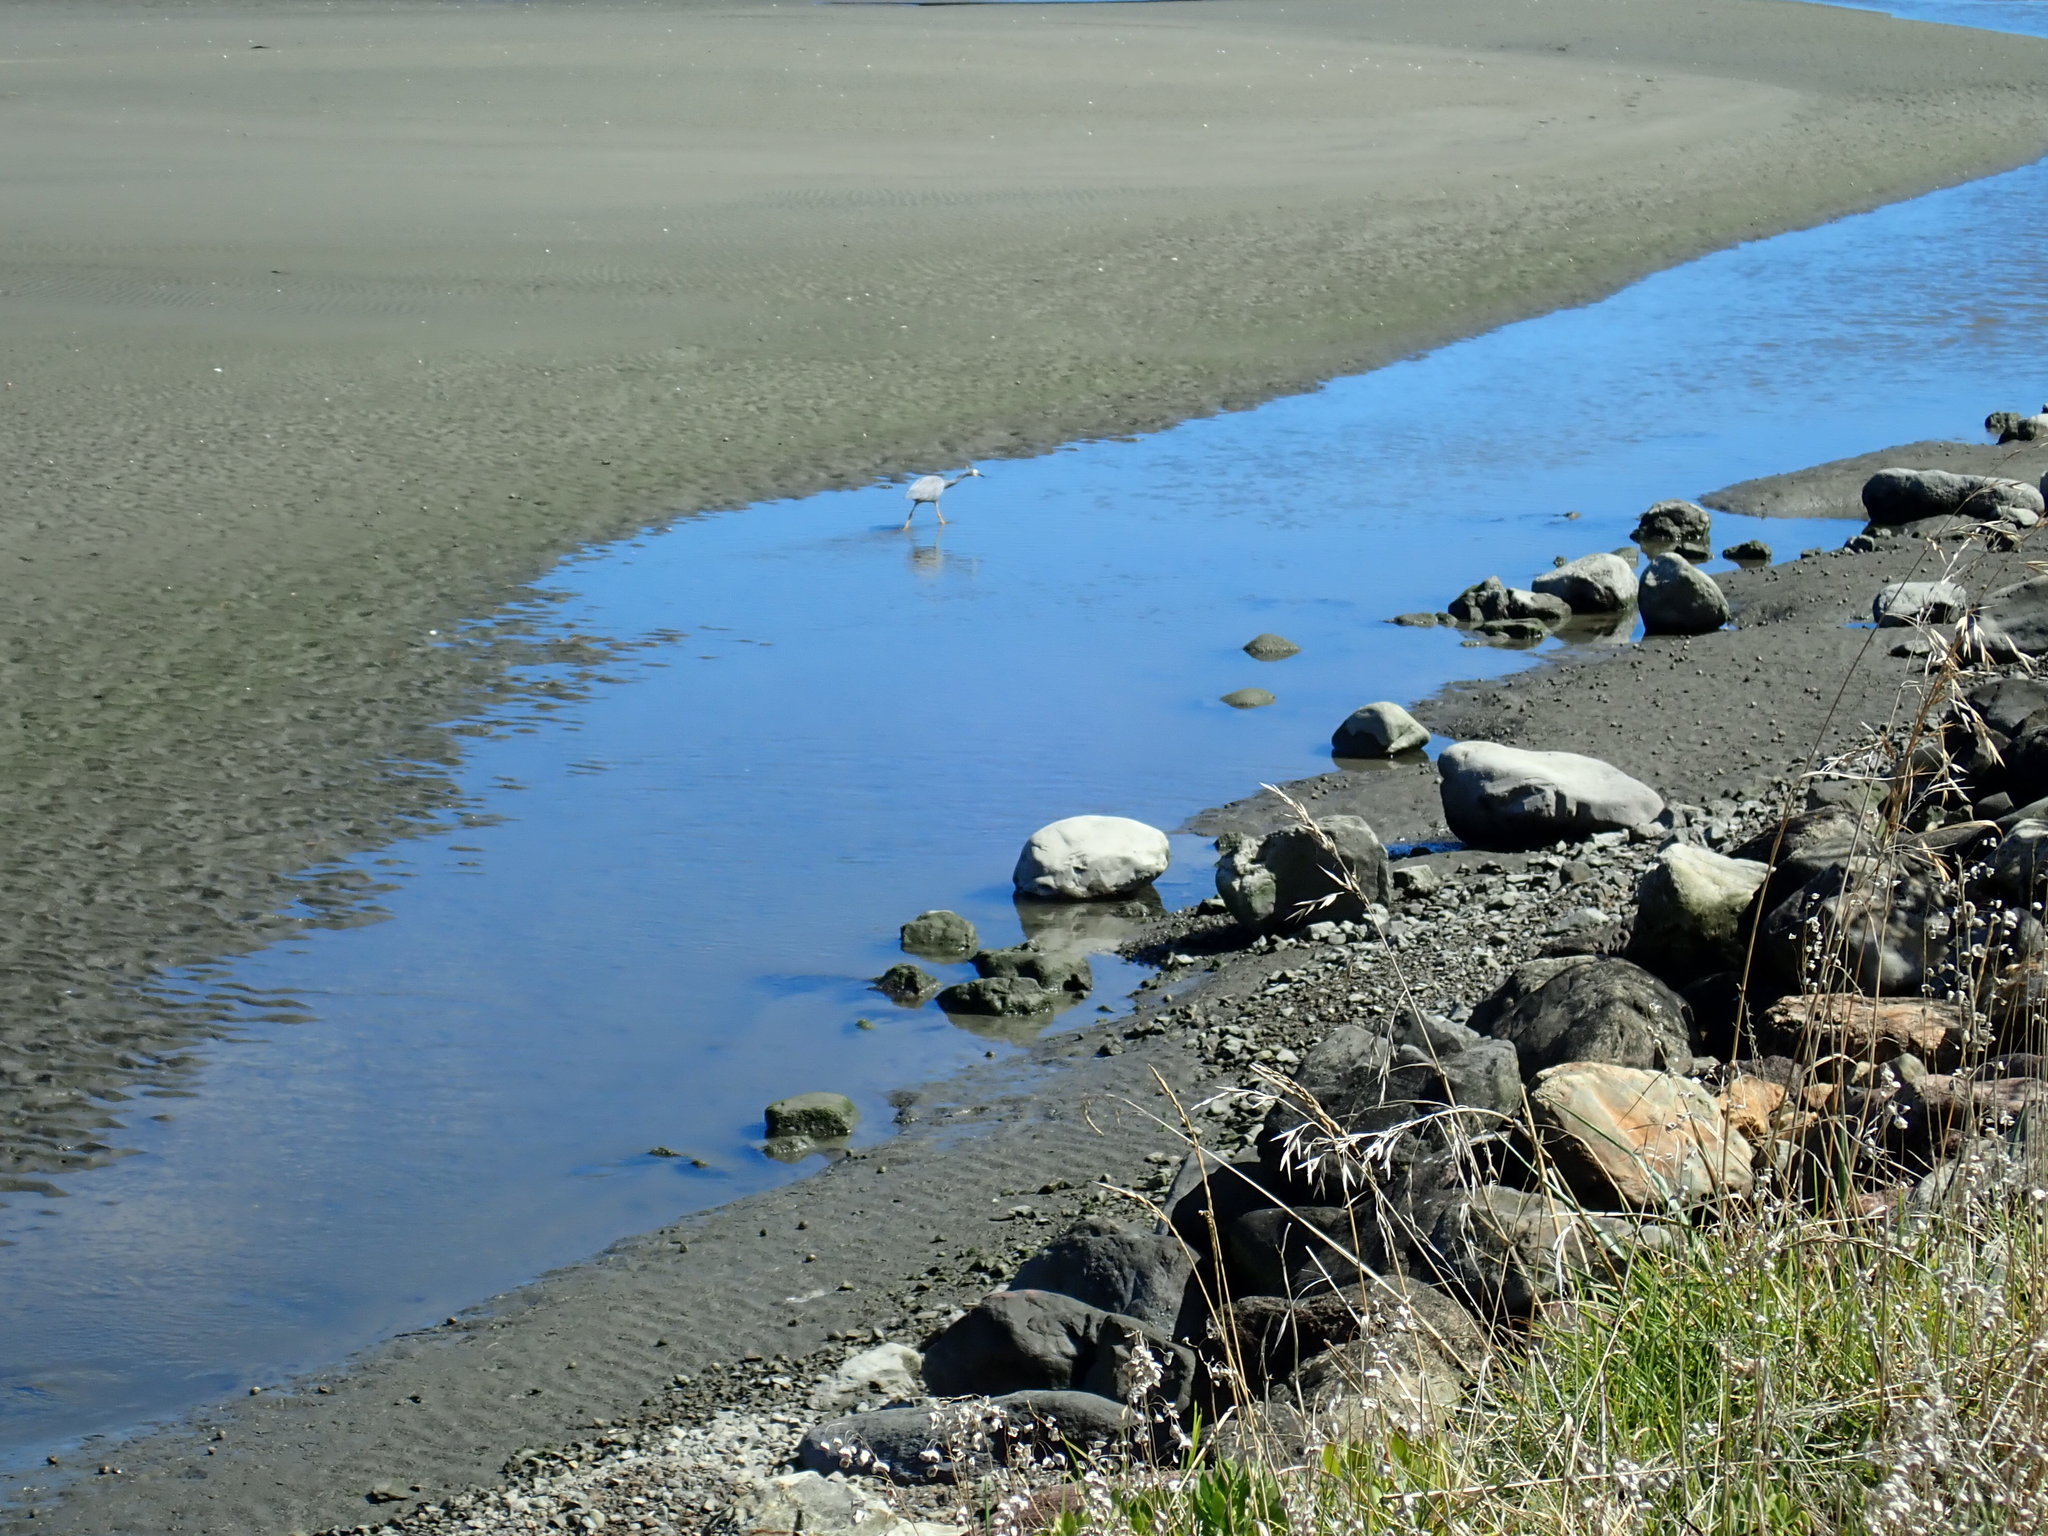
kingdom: Animalia
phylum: Chordata
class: Aves
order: Pelecaniformes
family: Ardeidae
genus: Egretta
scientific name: Egretta novaehollandiae
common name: White-faced heron
